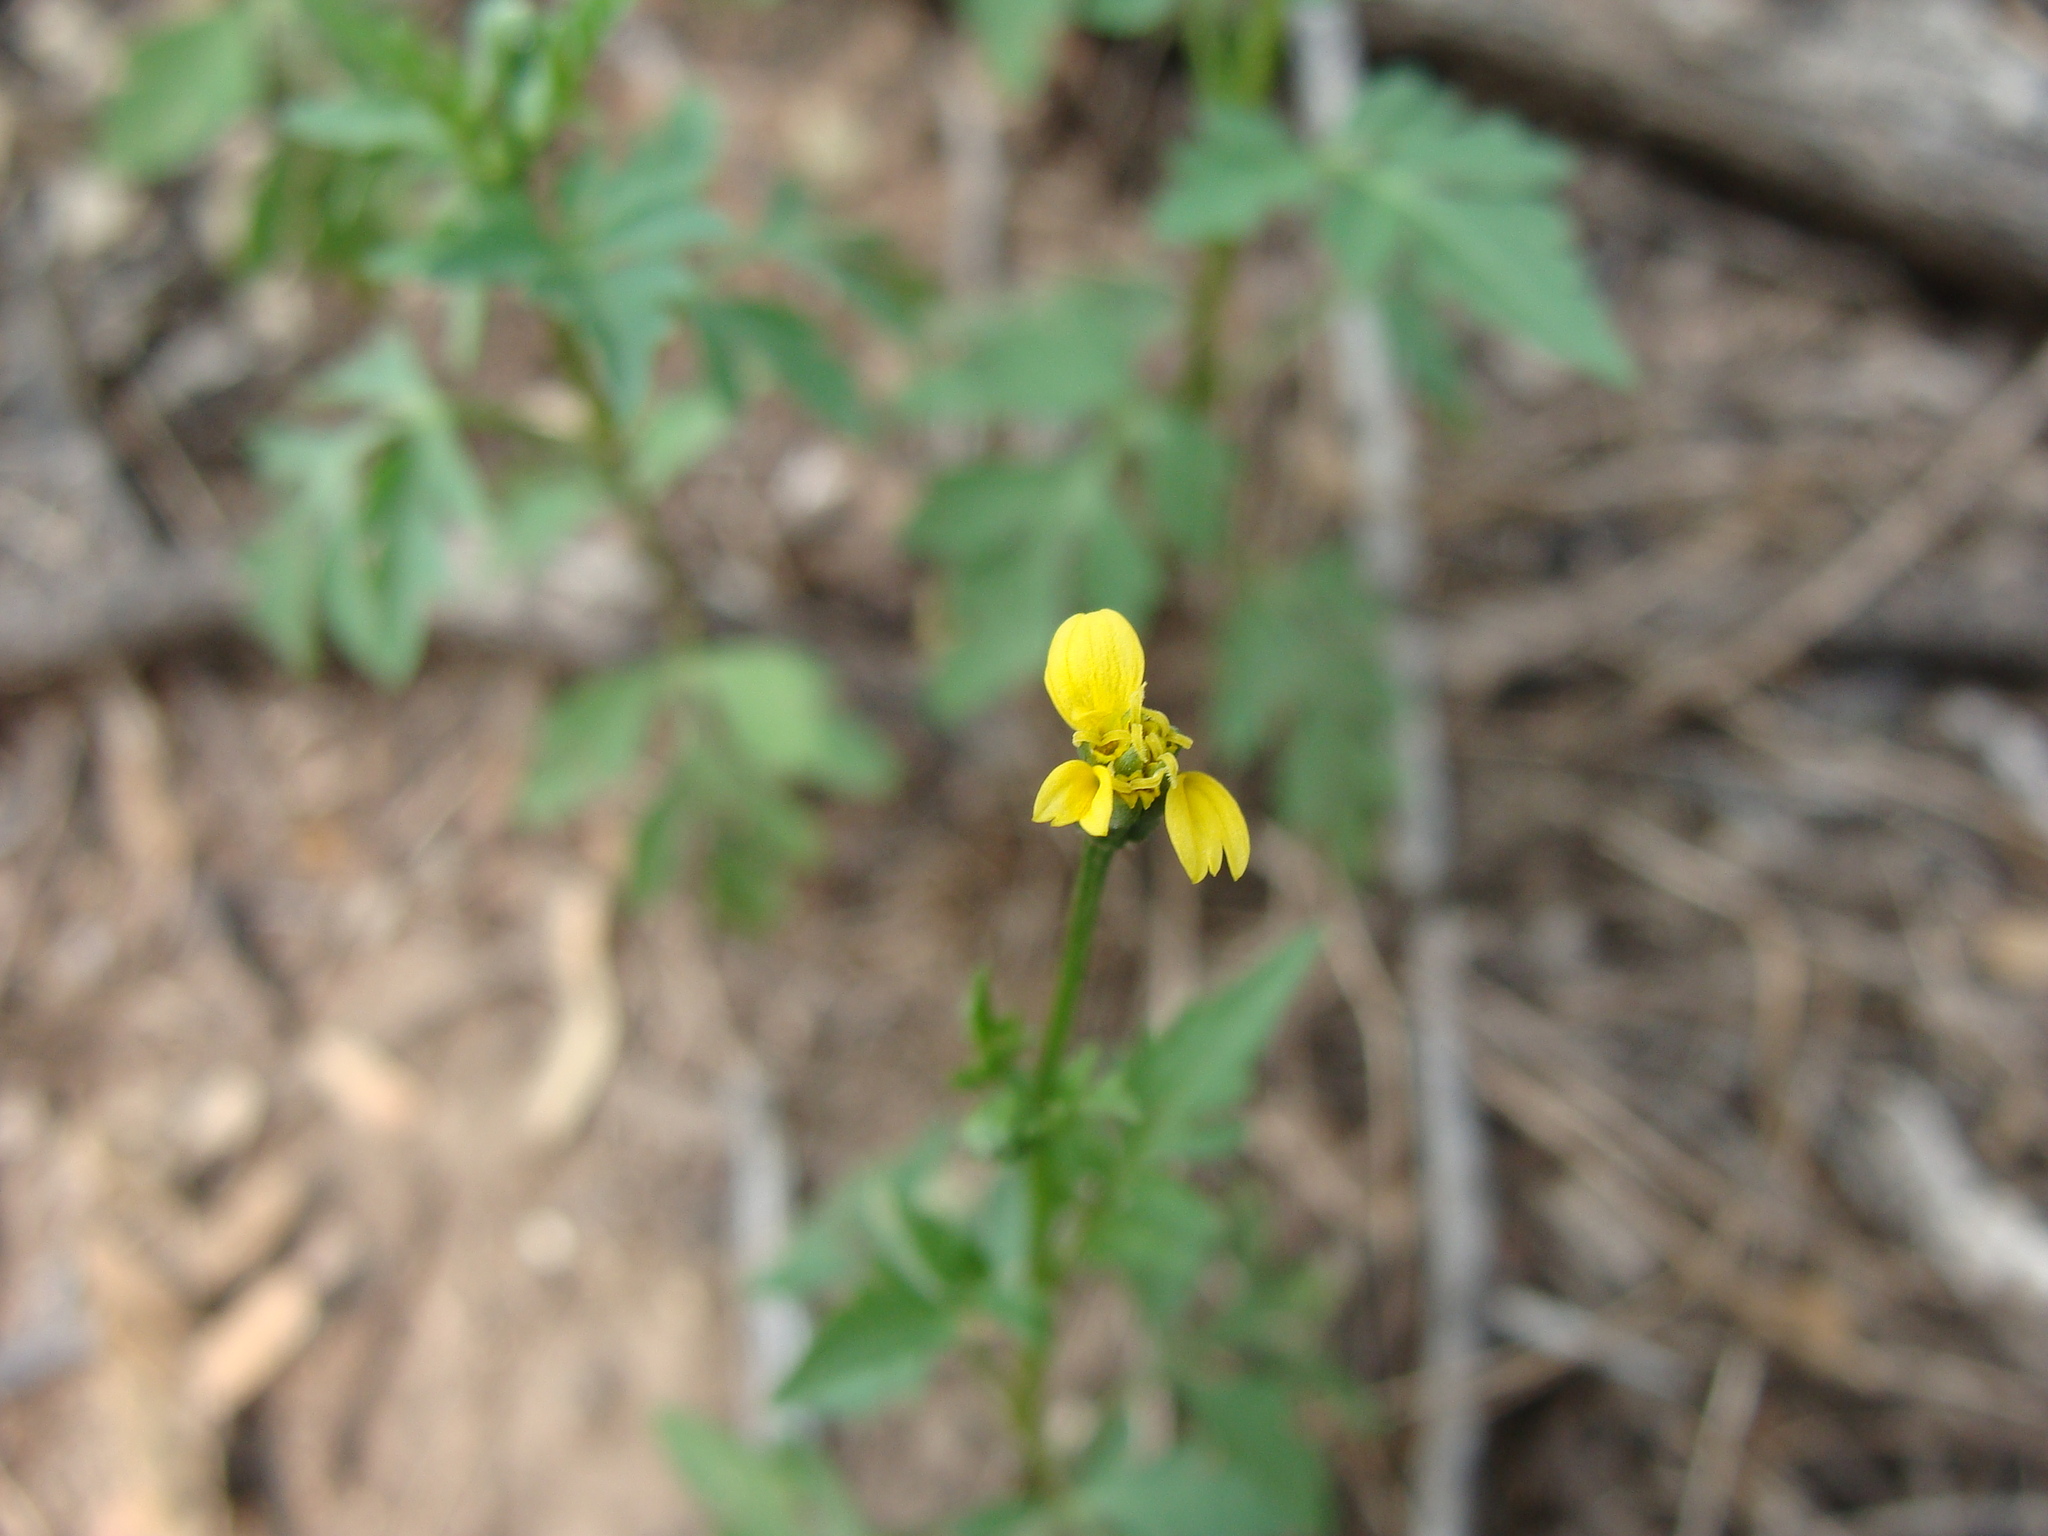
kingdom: Plantae
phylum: Tracheophyta
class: Magnoliopsida
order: Asterales
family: Asteraceae
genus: Bidens
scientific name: Bidens leptocephala
